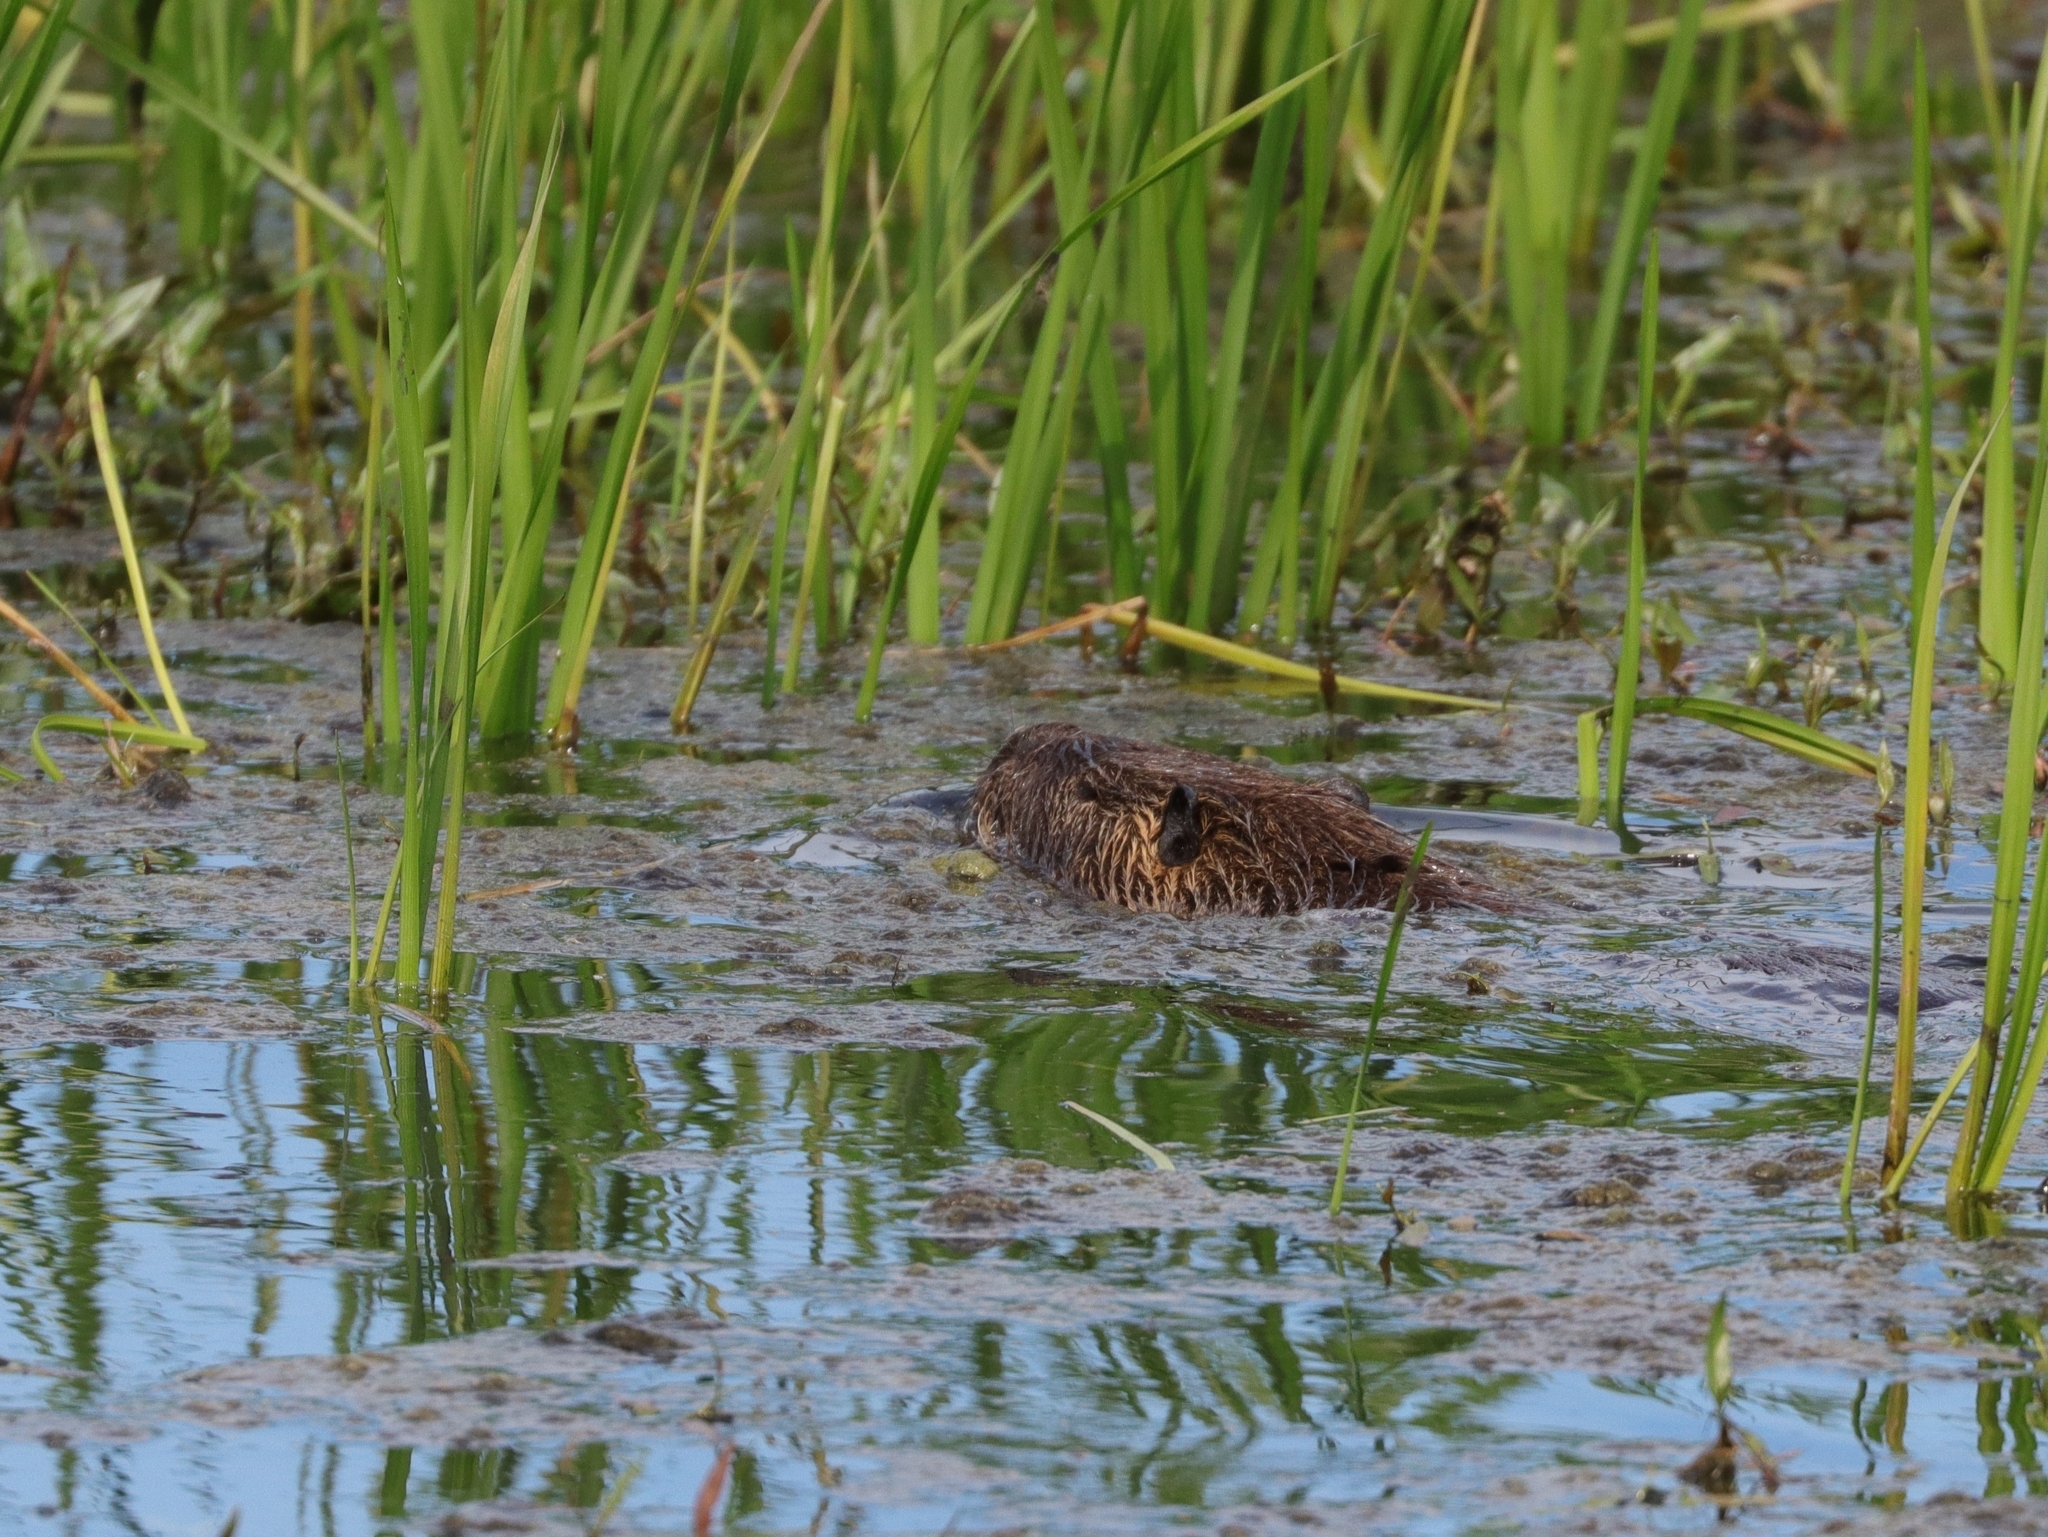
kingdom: Animalia
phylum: Chordata
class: Mammalia
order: Rodentia
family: Castoridae
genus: Castor
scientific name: Castor canadensis
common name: American beaver
